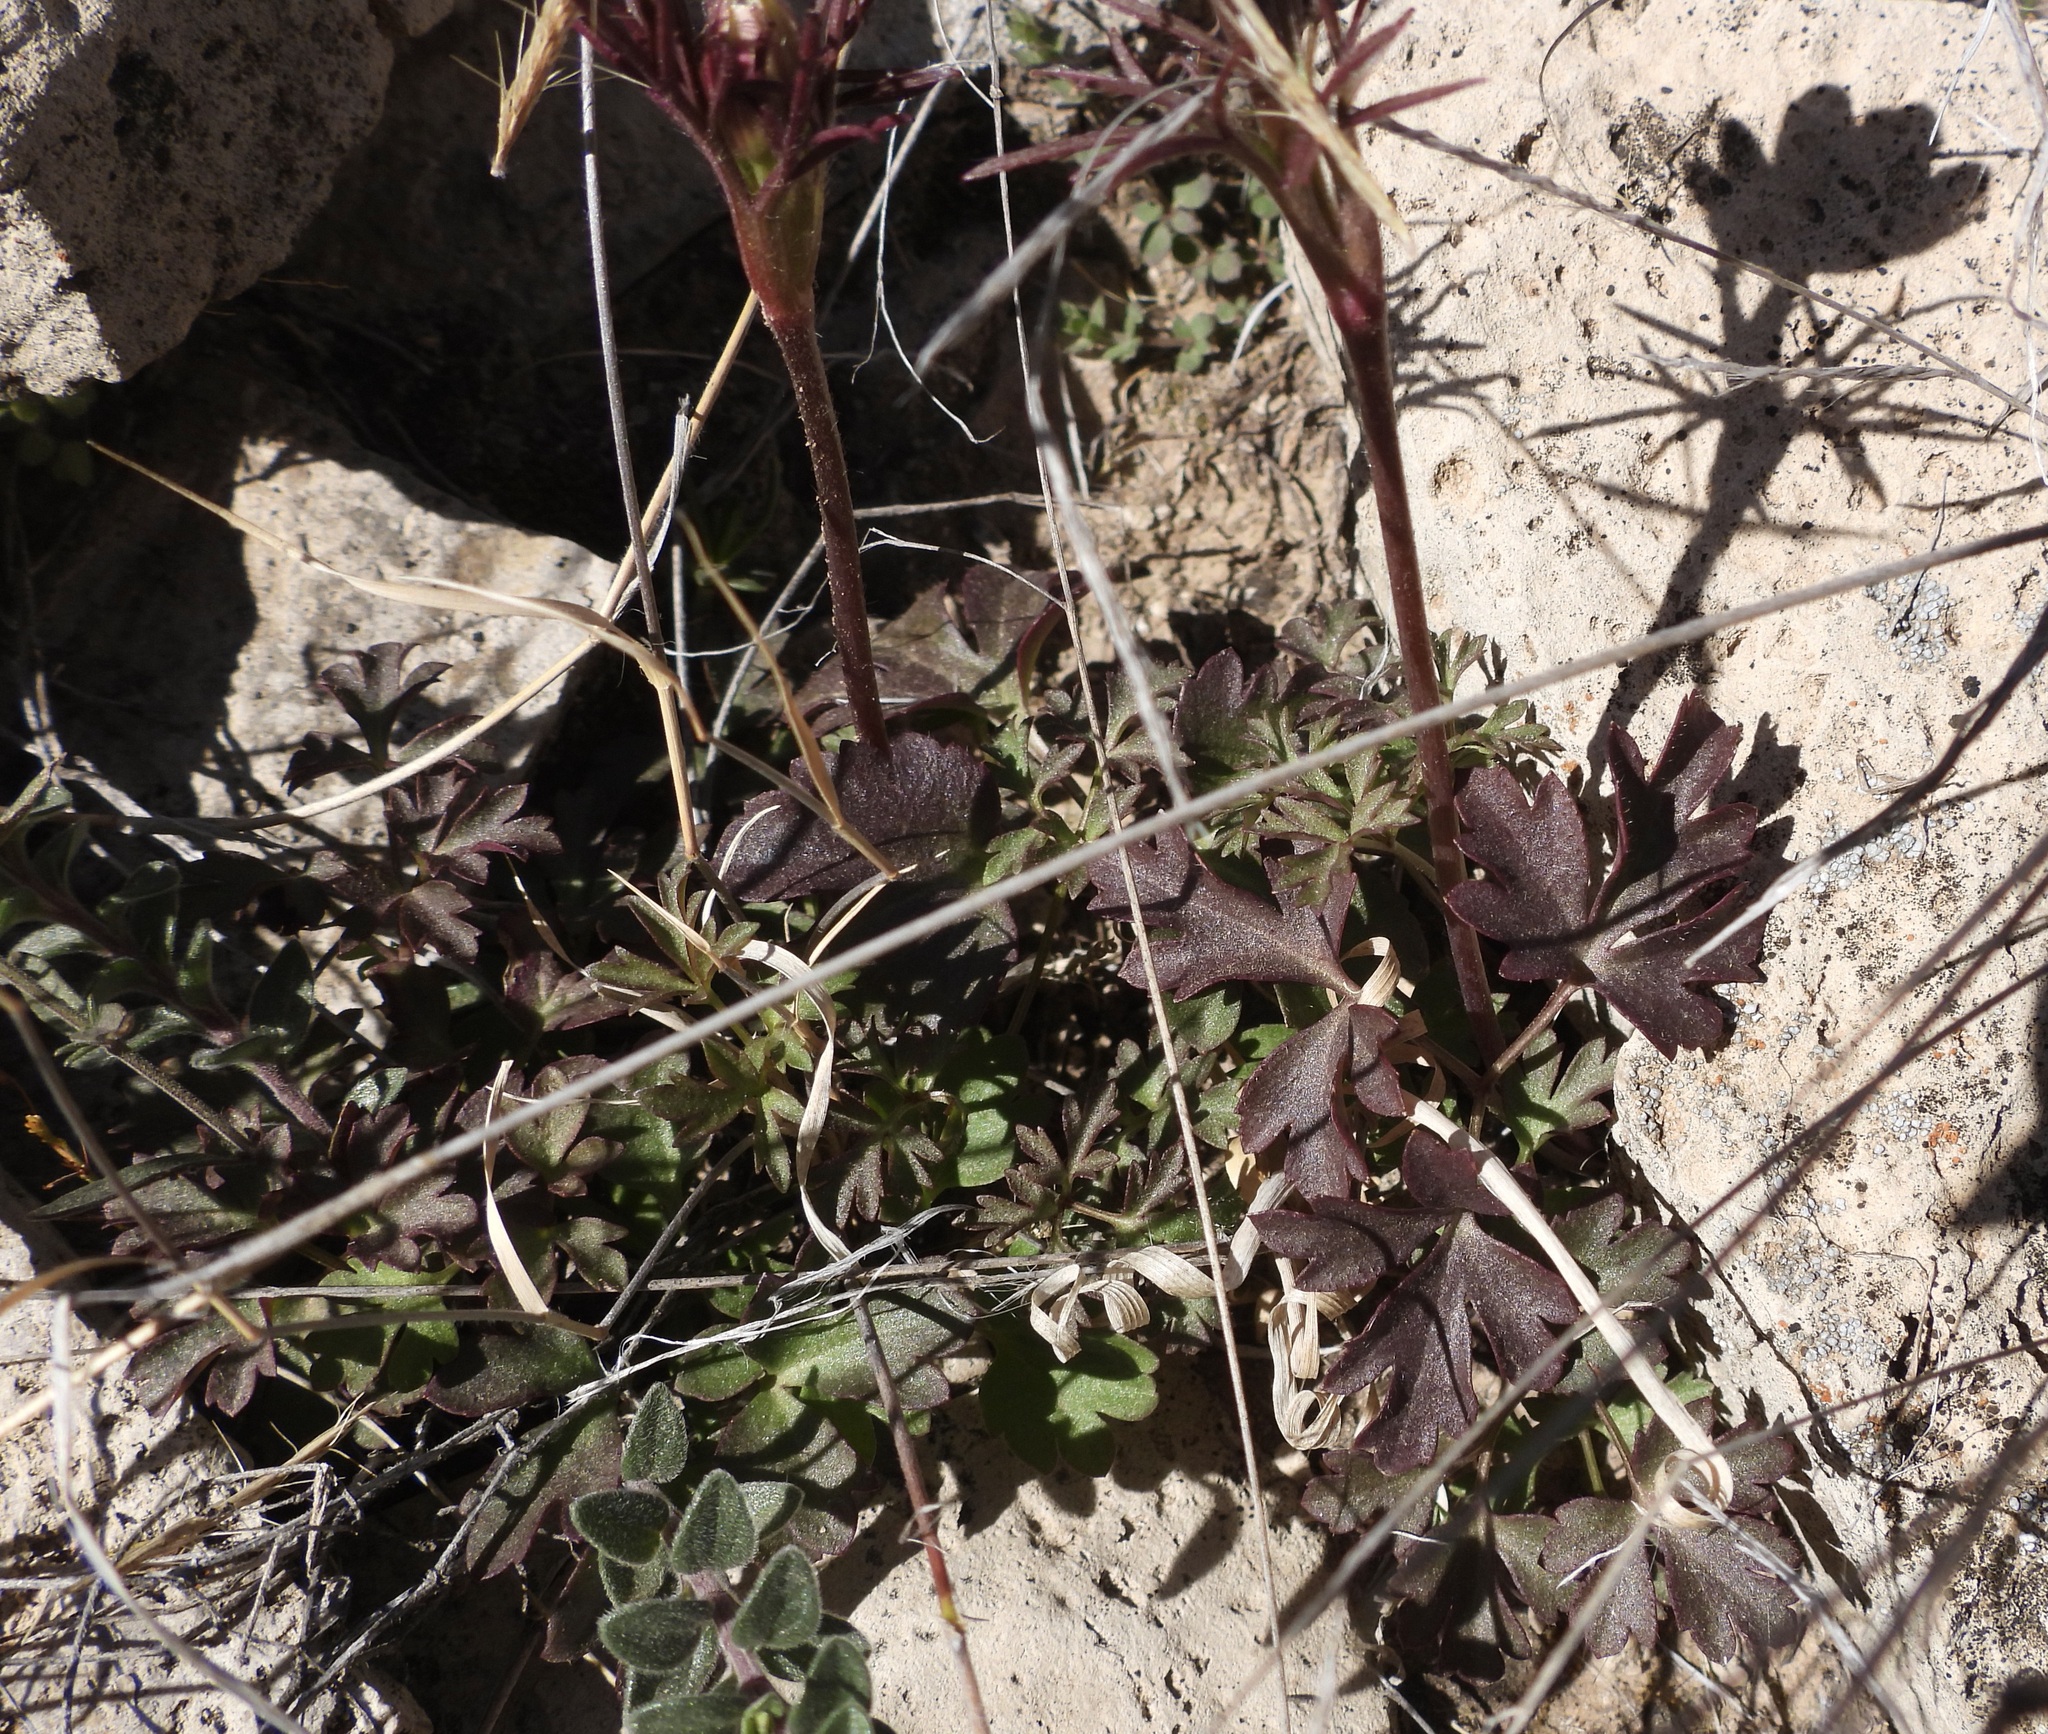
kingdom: Plantae
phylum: Tracheophyta
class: Magnoliopsida
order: Ranunculales
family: Ranunculaceae
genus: Anemone
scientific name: Anemone tuberosa
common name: Desert anemone
